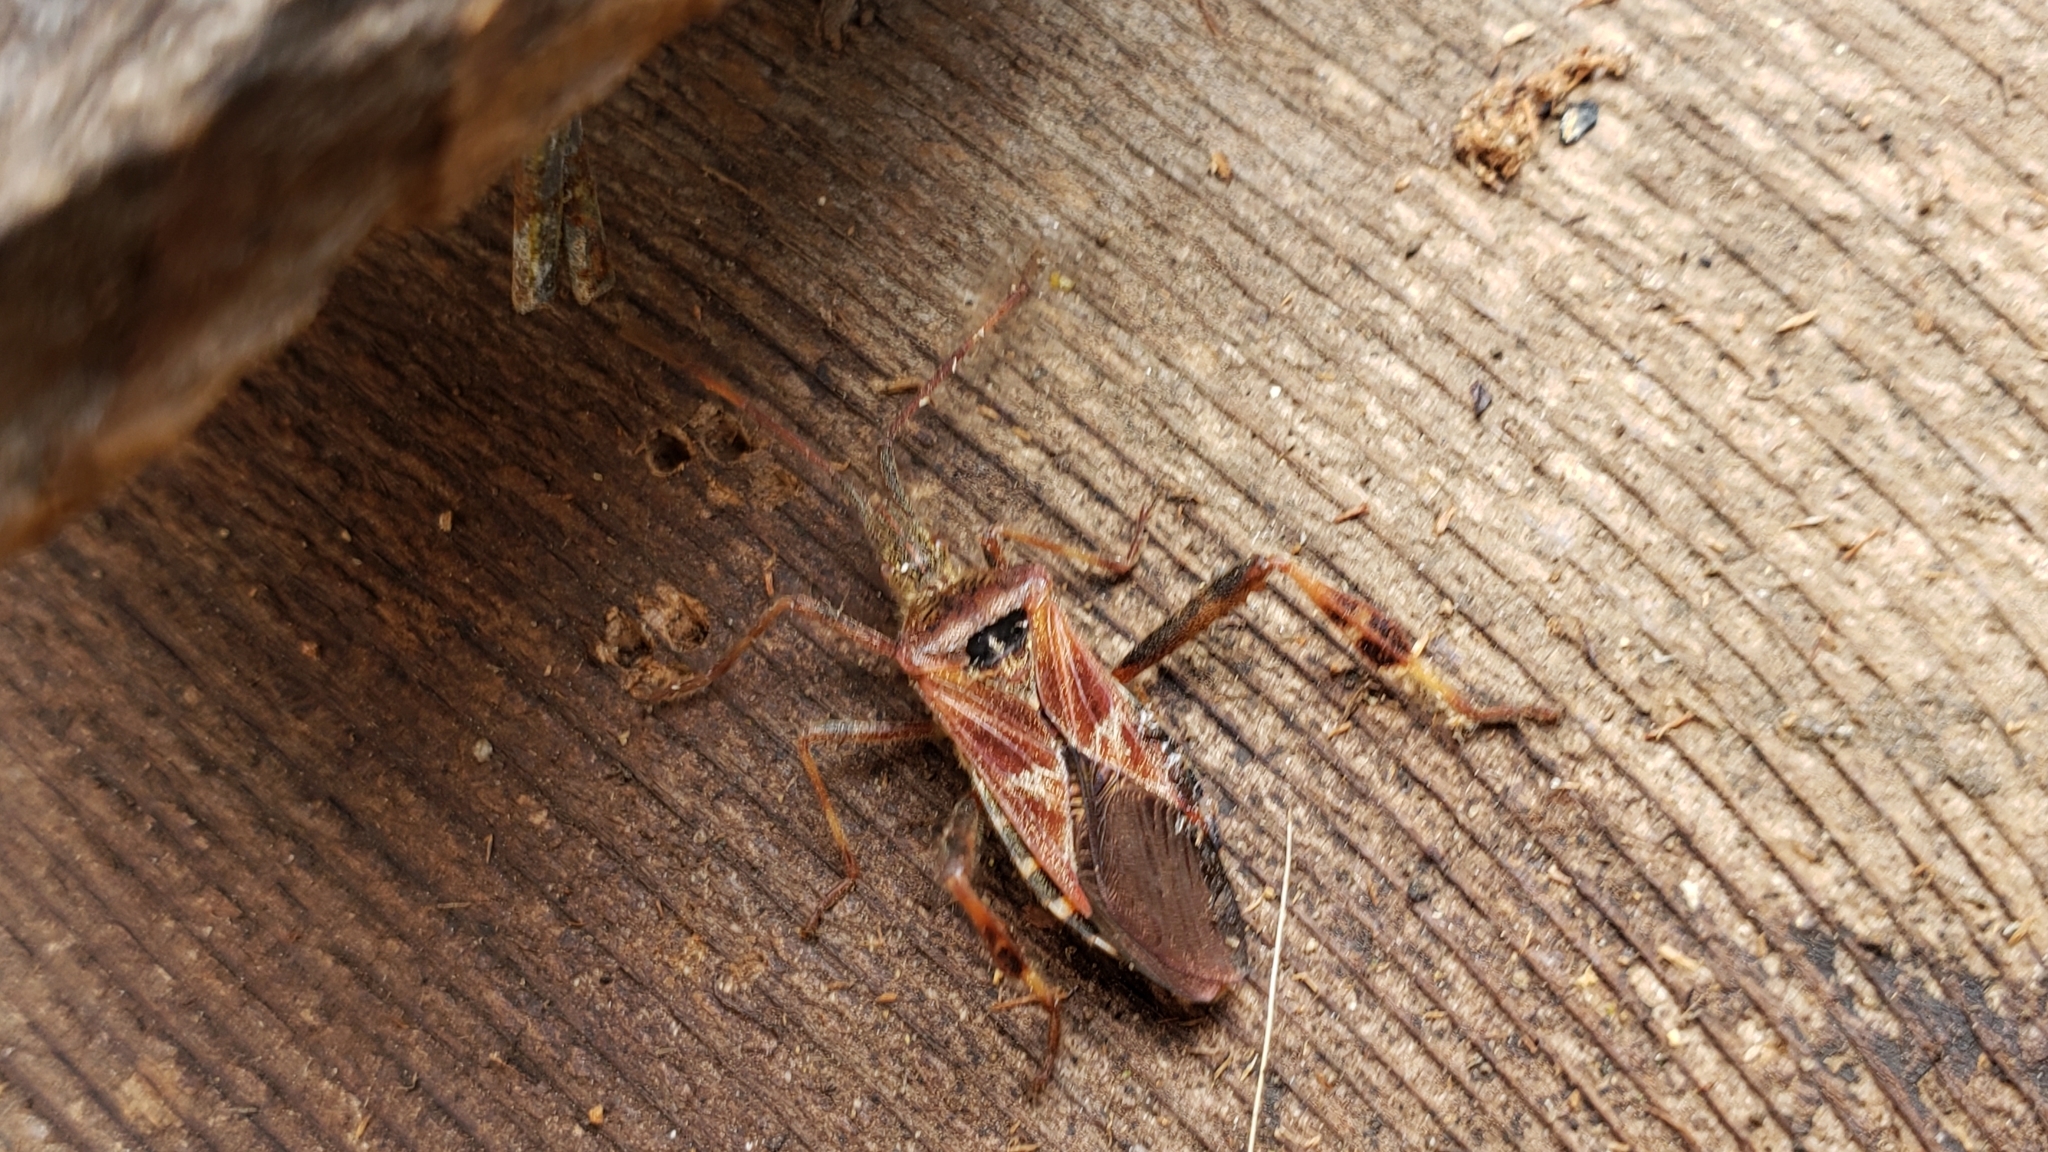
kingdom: Animalia
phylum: Arthropoda
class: Insecta
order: Hemiptera
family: Coreidae
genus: Leptoglossus
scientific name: Leptoglossus occidentalis
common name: Western conifer-seed bug
